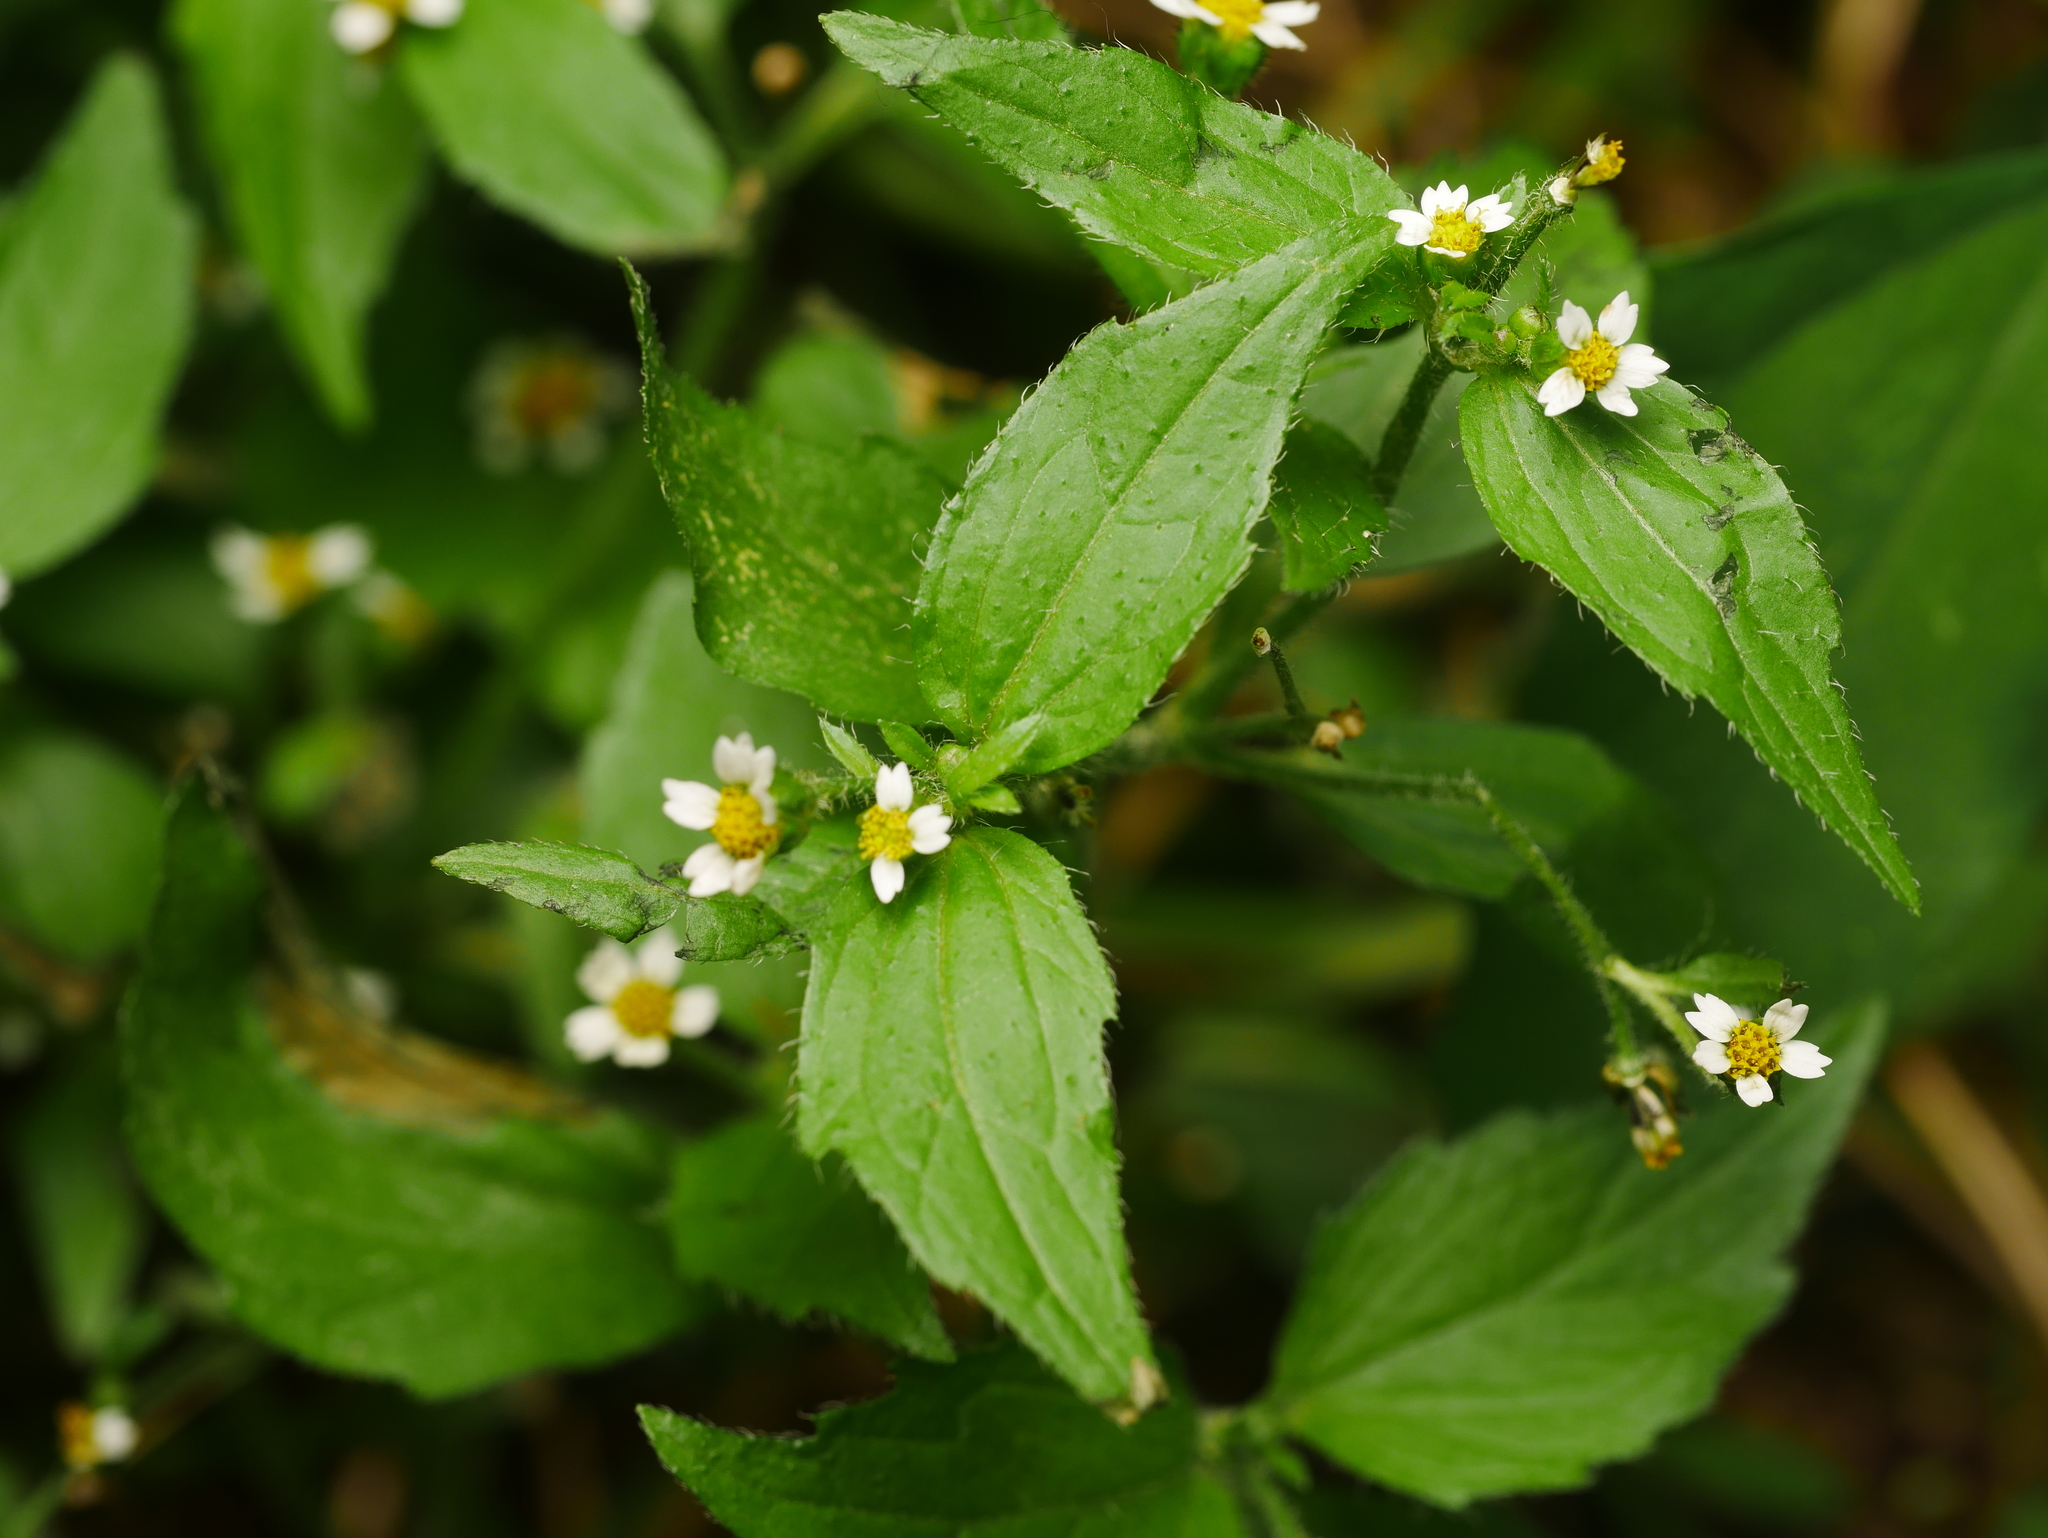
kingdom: Plantae
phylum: Tracheophyta
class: Magnoliopsida
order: Asterales
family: Asteraceae
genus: Galinsoga
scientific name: Galinsoga quadriradiata
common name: Shaggy soldier
